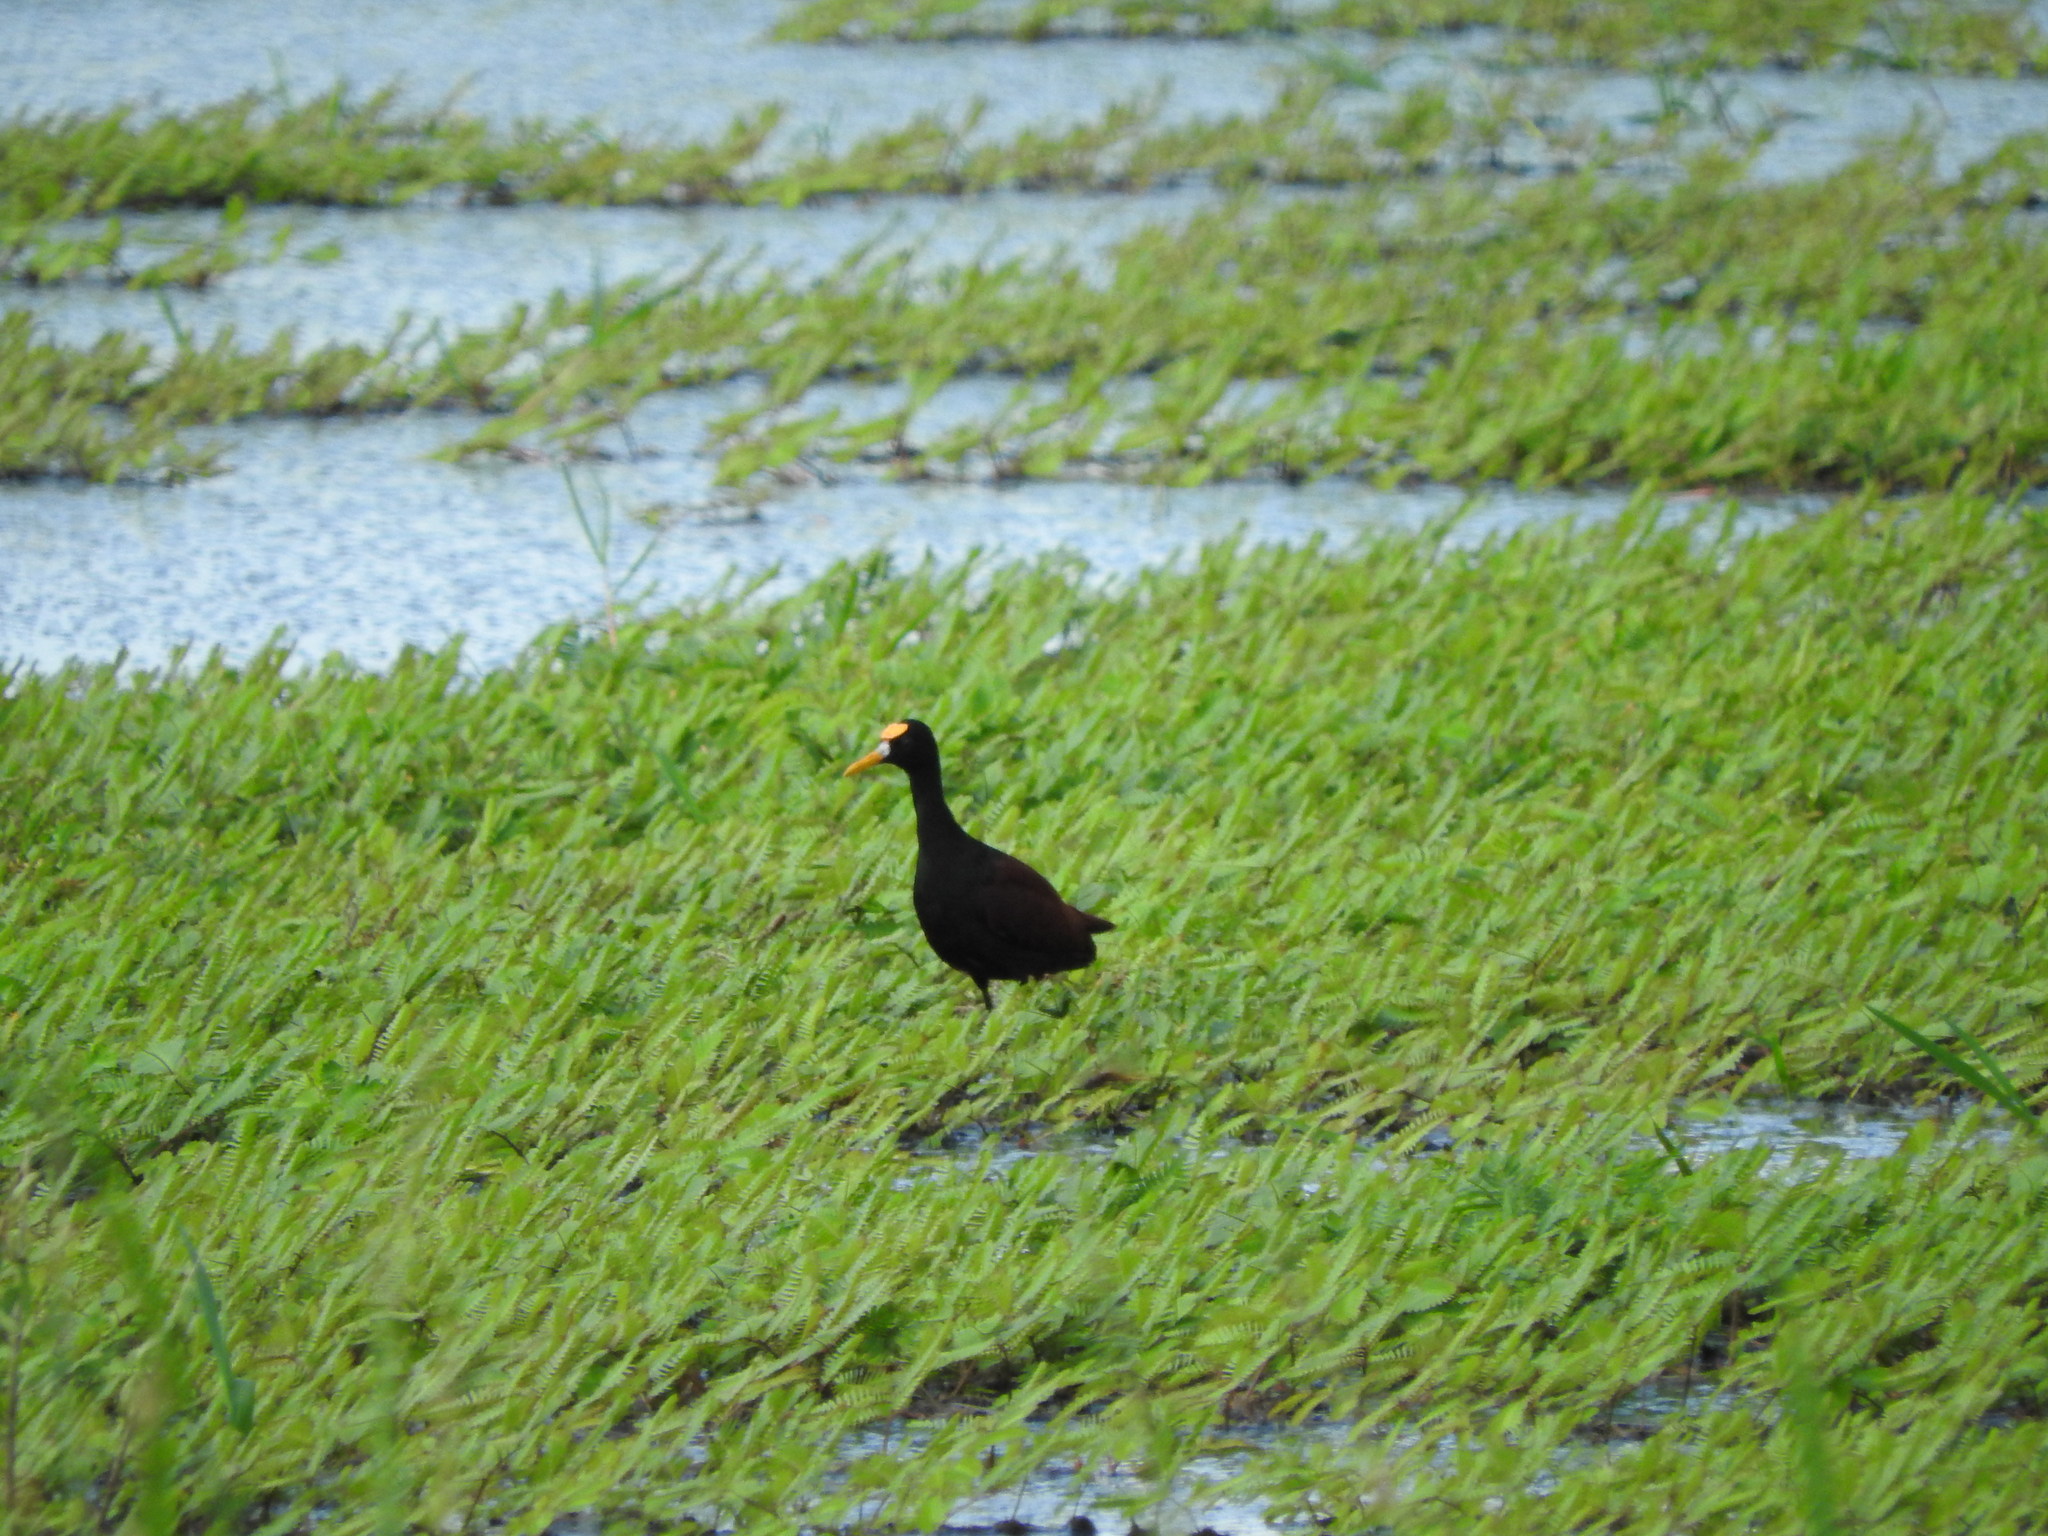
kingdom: Animalia
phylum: Chordata
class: Aves
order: Charadriiformes
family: Jacanidae
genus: Jacana
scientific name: Jacana spinosa
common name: Northern jacana
